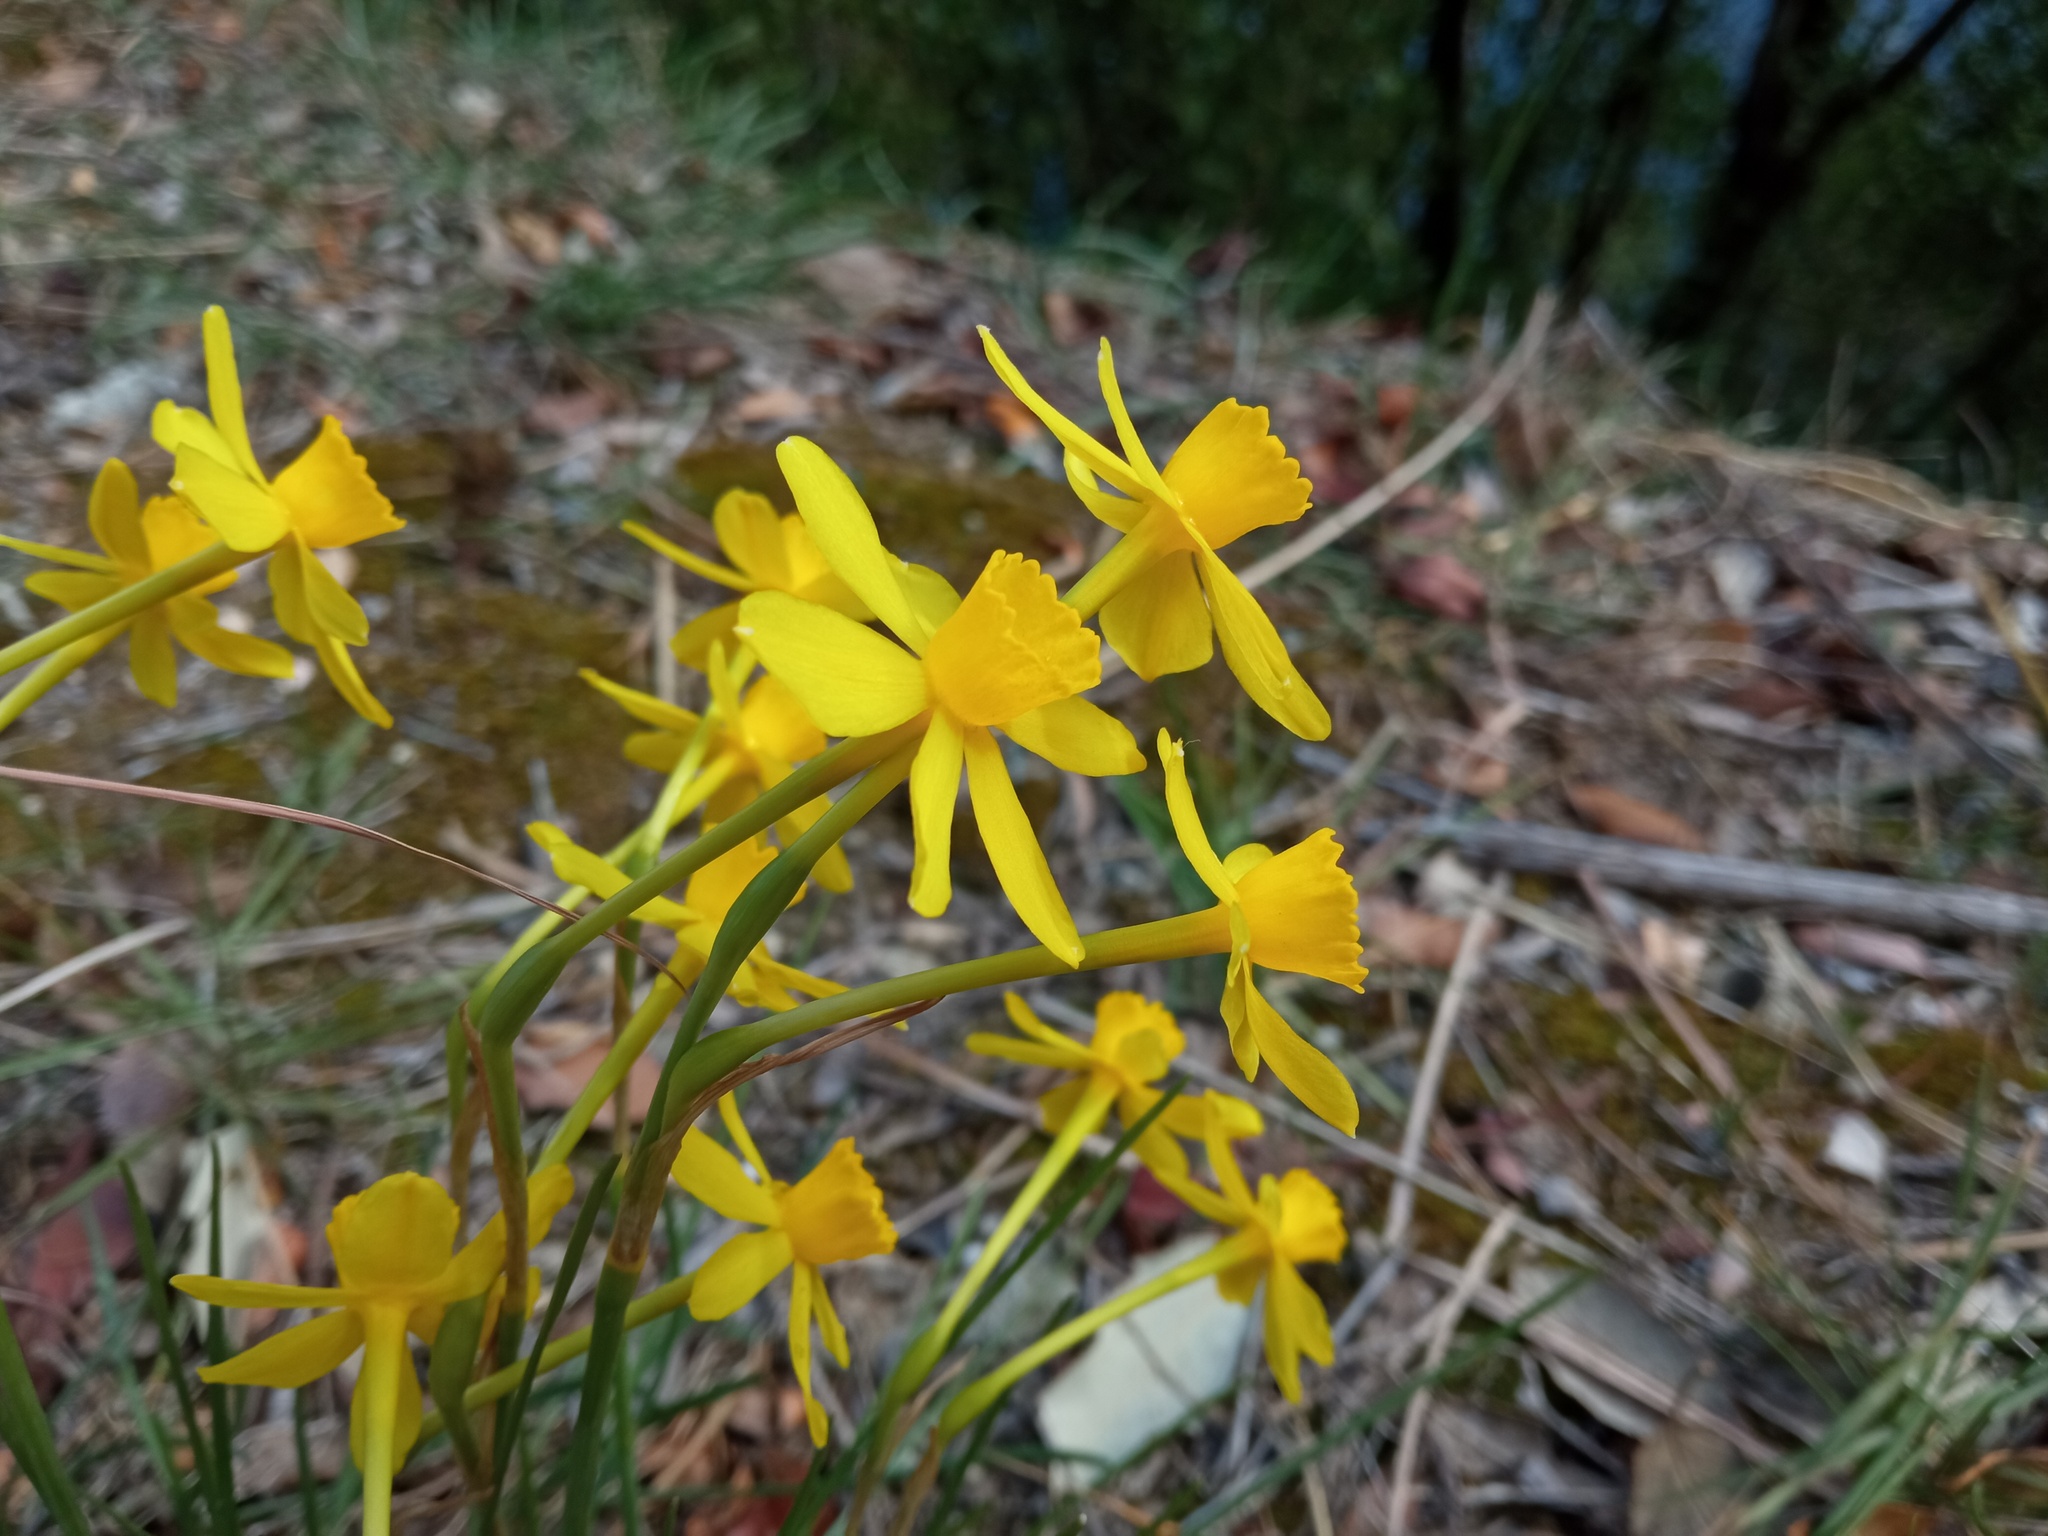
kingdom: Plantae
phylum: Tracheophyta
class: Liliopsida
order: Asparagales
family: Amaryllidaceae
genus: Narcissus
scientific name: Narcissus assoanus
